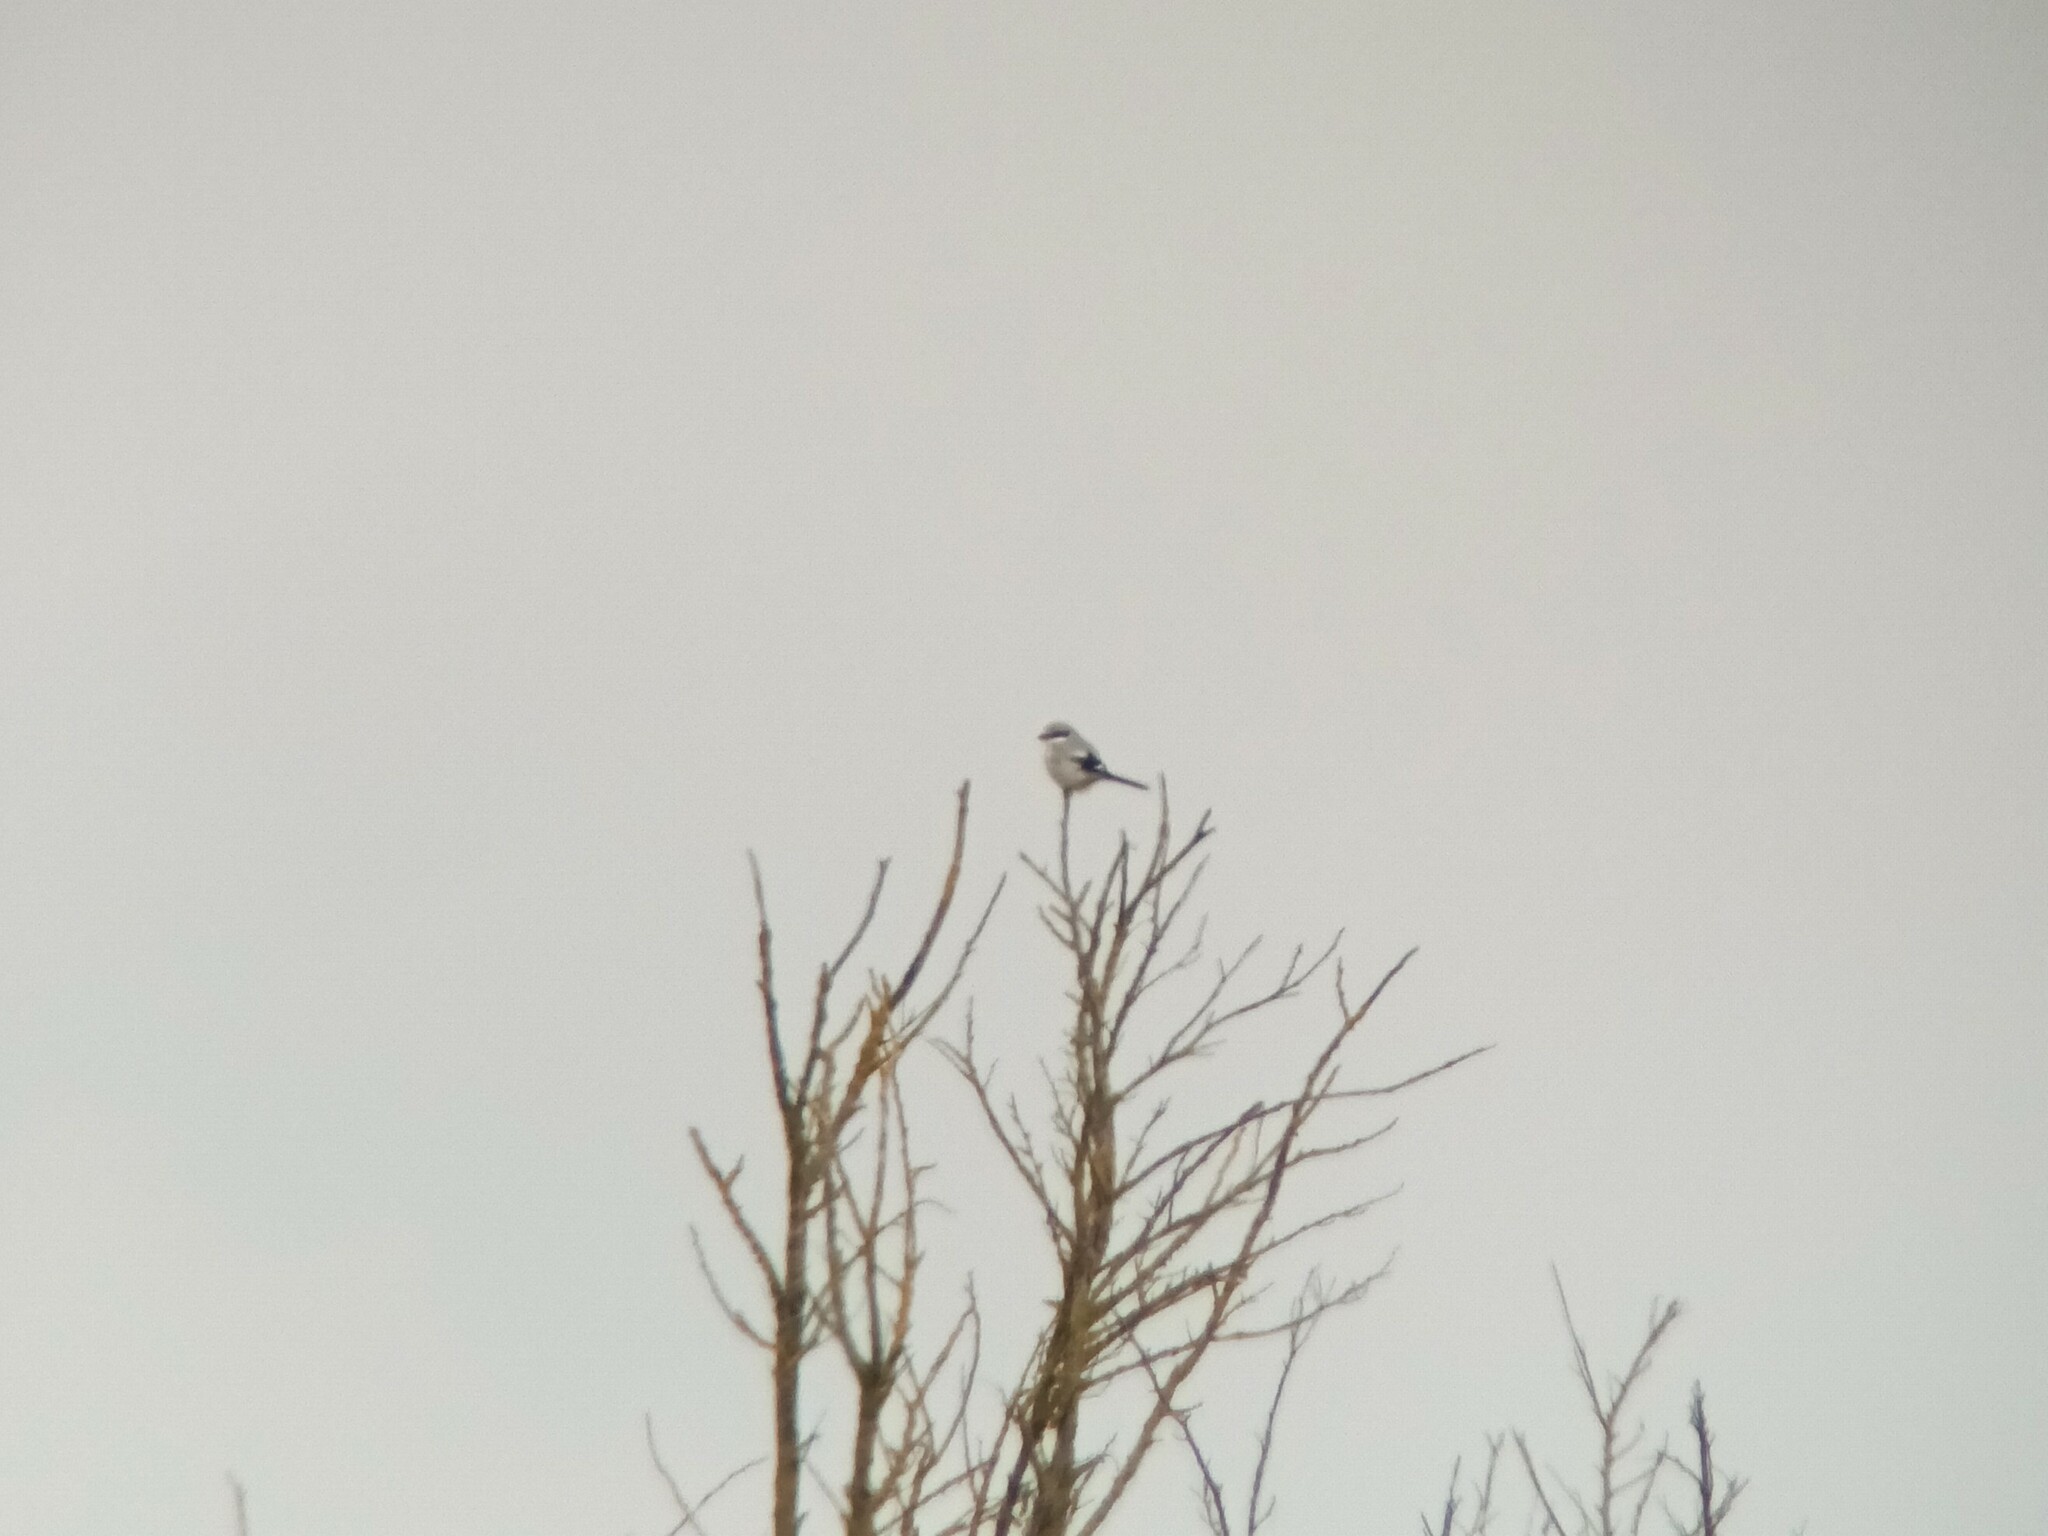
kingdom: Animalia
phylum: Chordata
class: Aves
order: Passeriformes
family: Laniidae
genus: Lanius
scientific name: Lanius excubitor
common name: Great grey shrike
